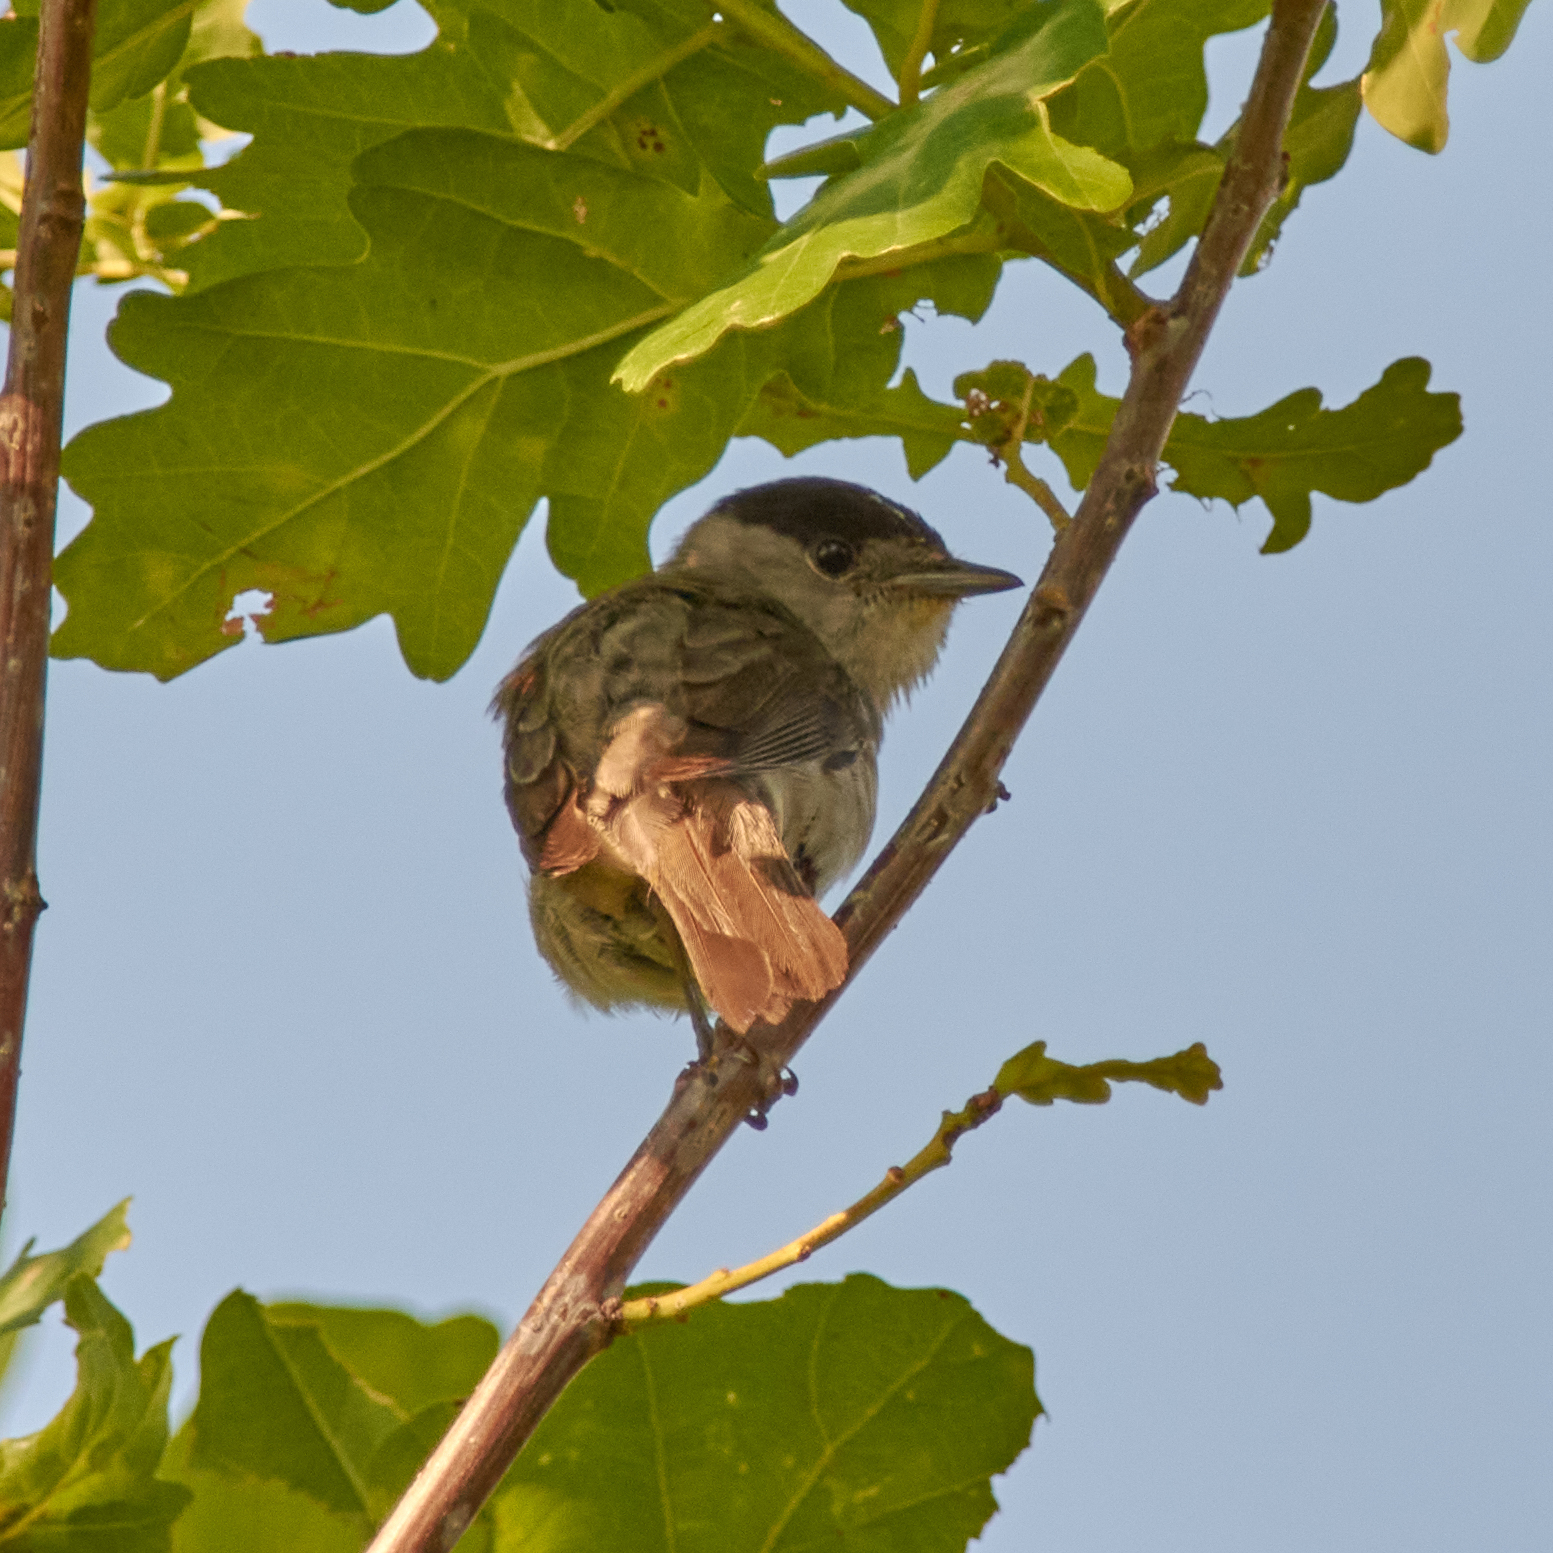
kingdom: Animalia
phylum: Chordata
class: Aves
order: Passeriformes
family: Sylviidae
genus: Sylvia
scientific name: Sylvia atricapilla
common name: Eurasian blackcap
